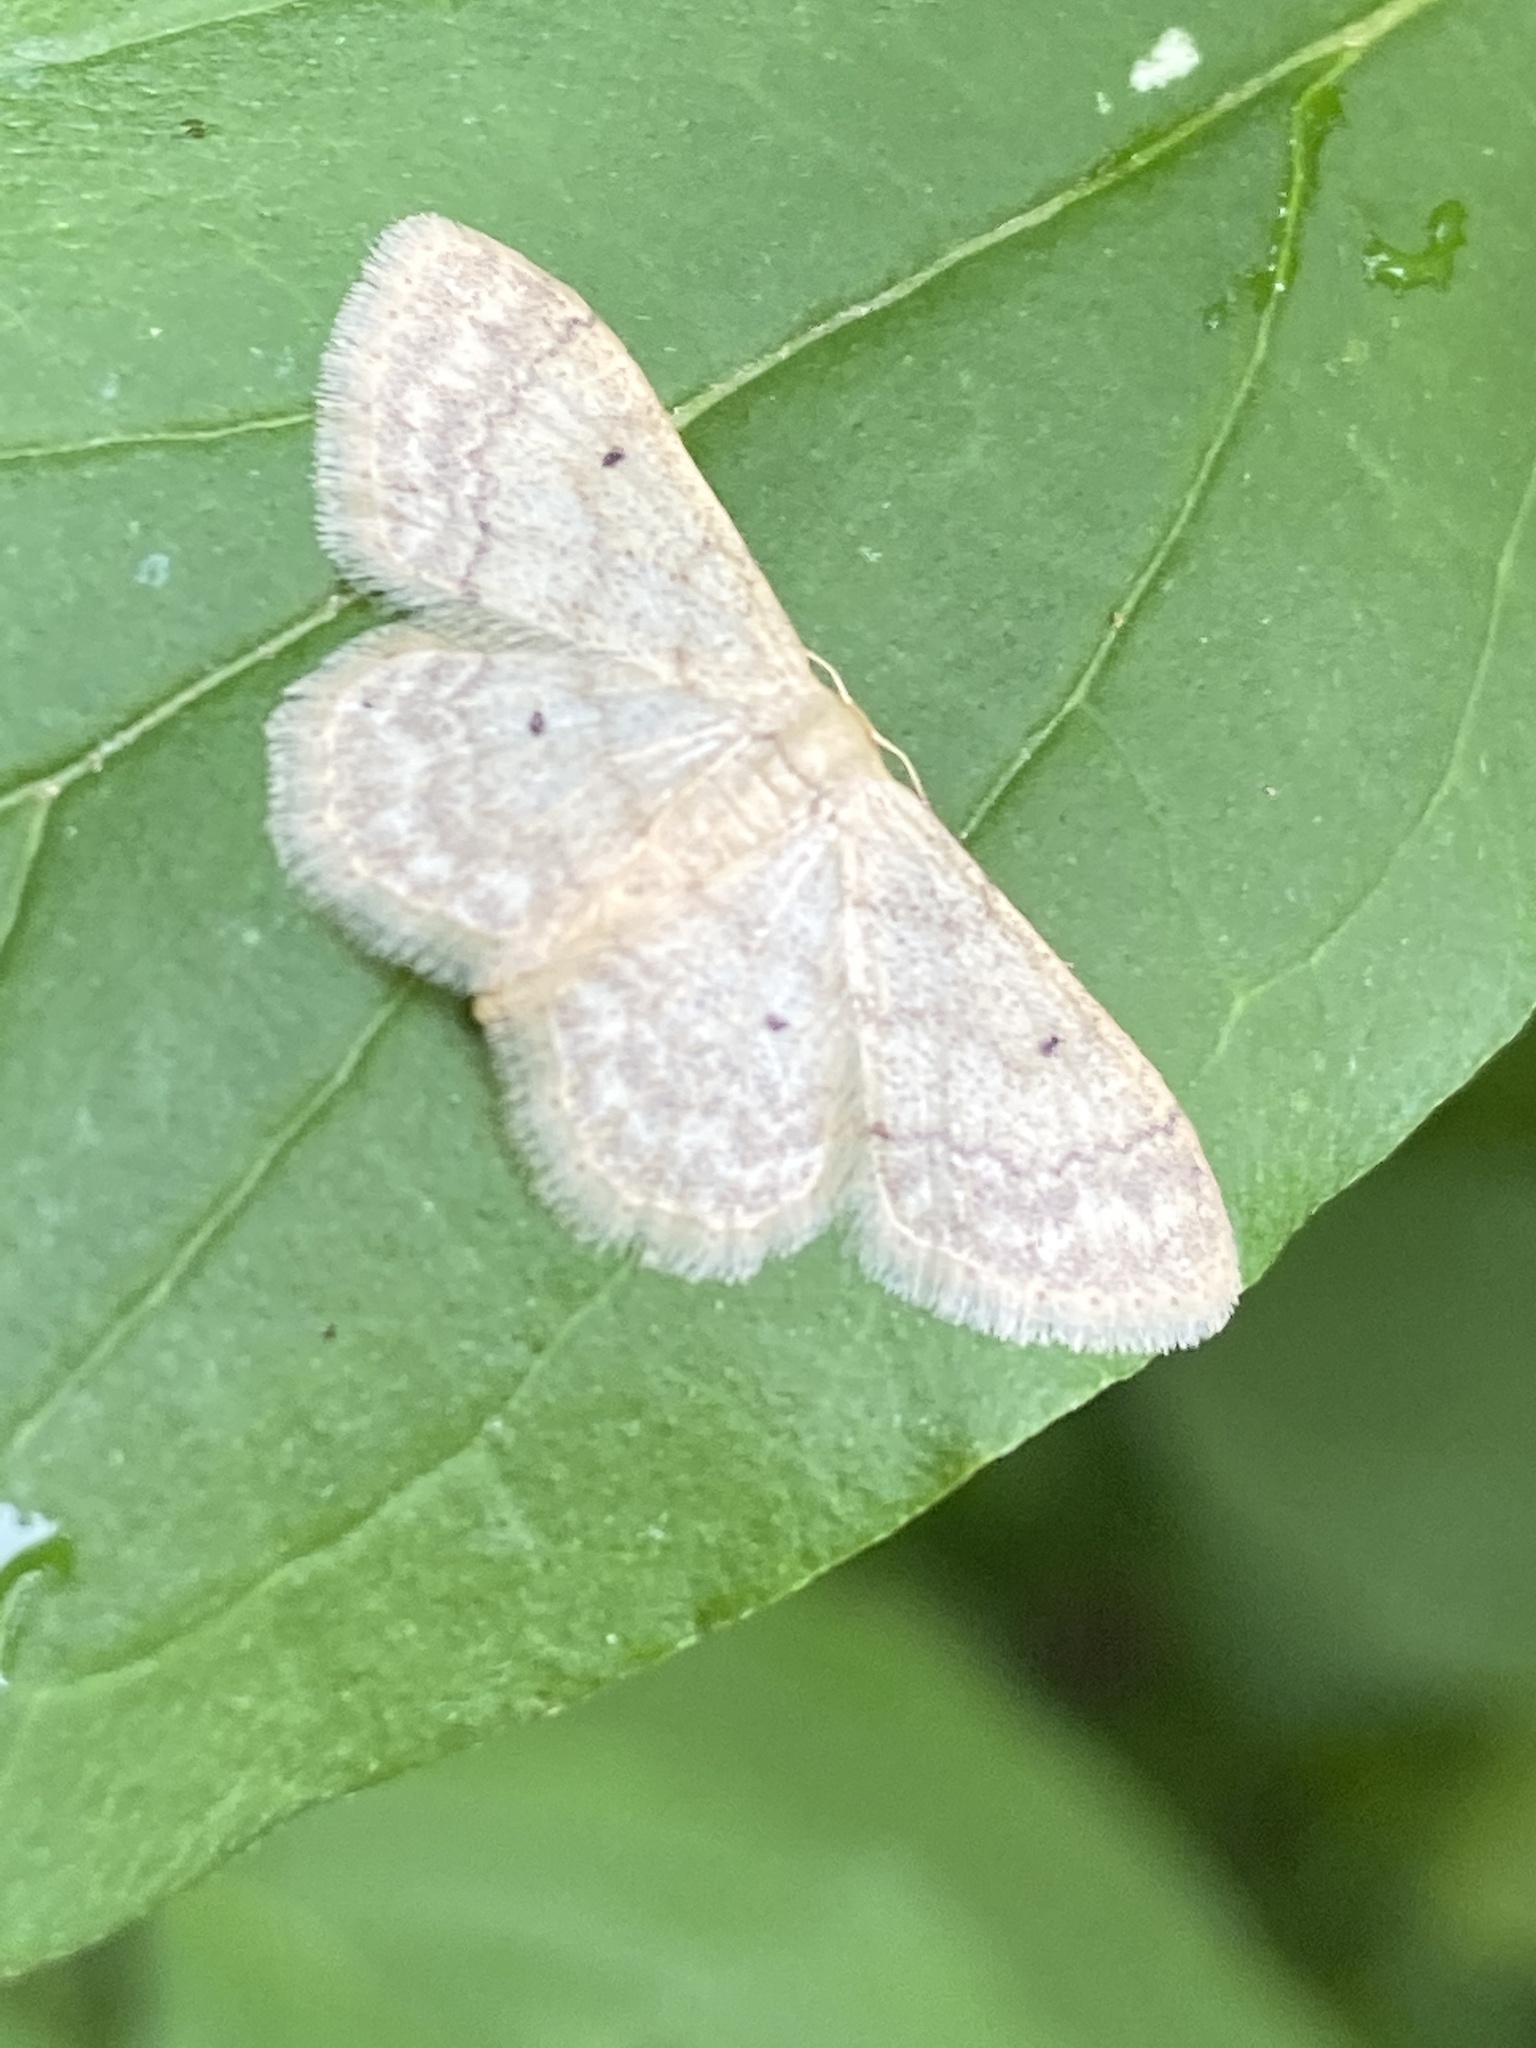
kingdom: Animalia
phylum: Arthropoda
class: Insecta
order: Lepidoptera
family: Geometridae
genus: Idaea
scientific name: Idaea biselata
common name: Small fan-footed wave
